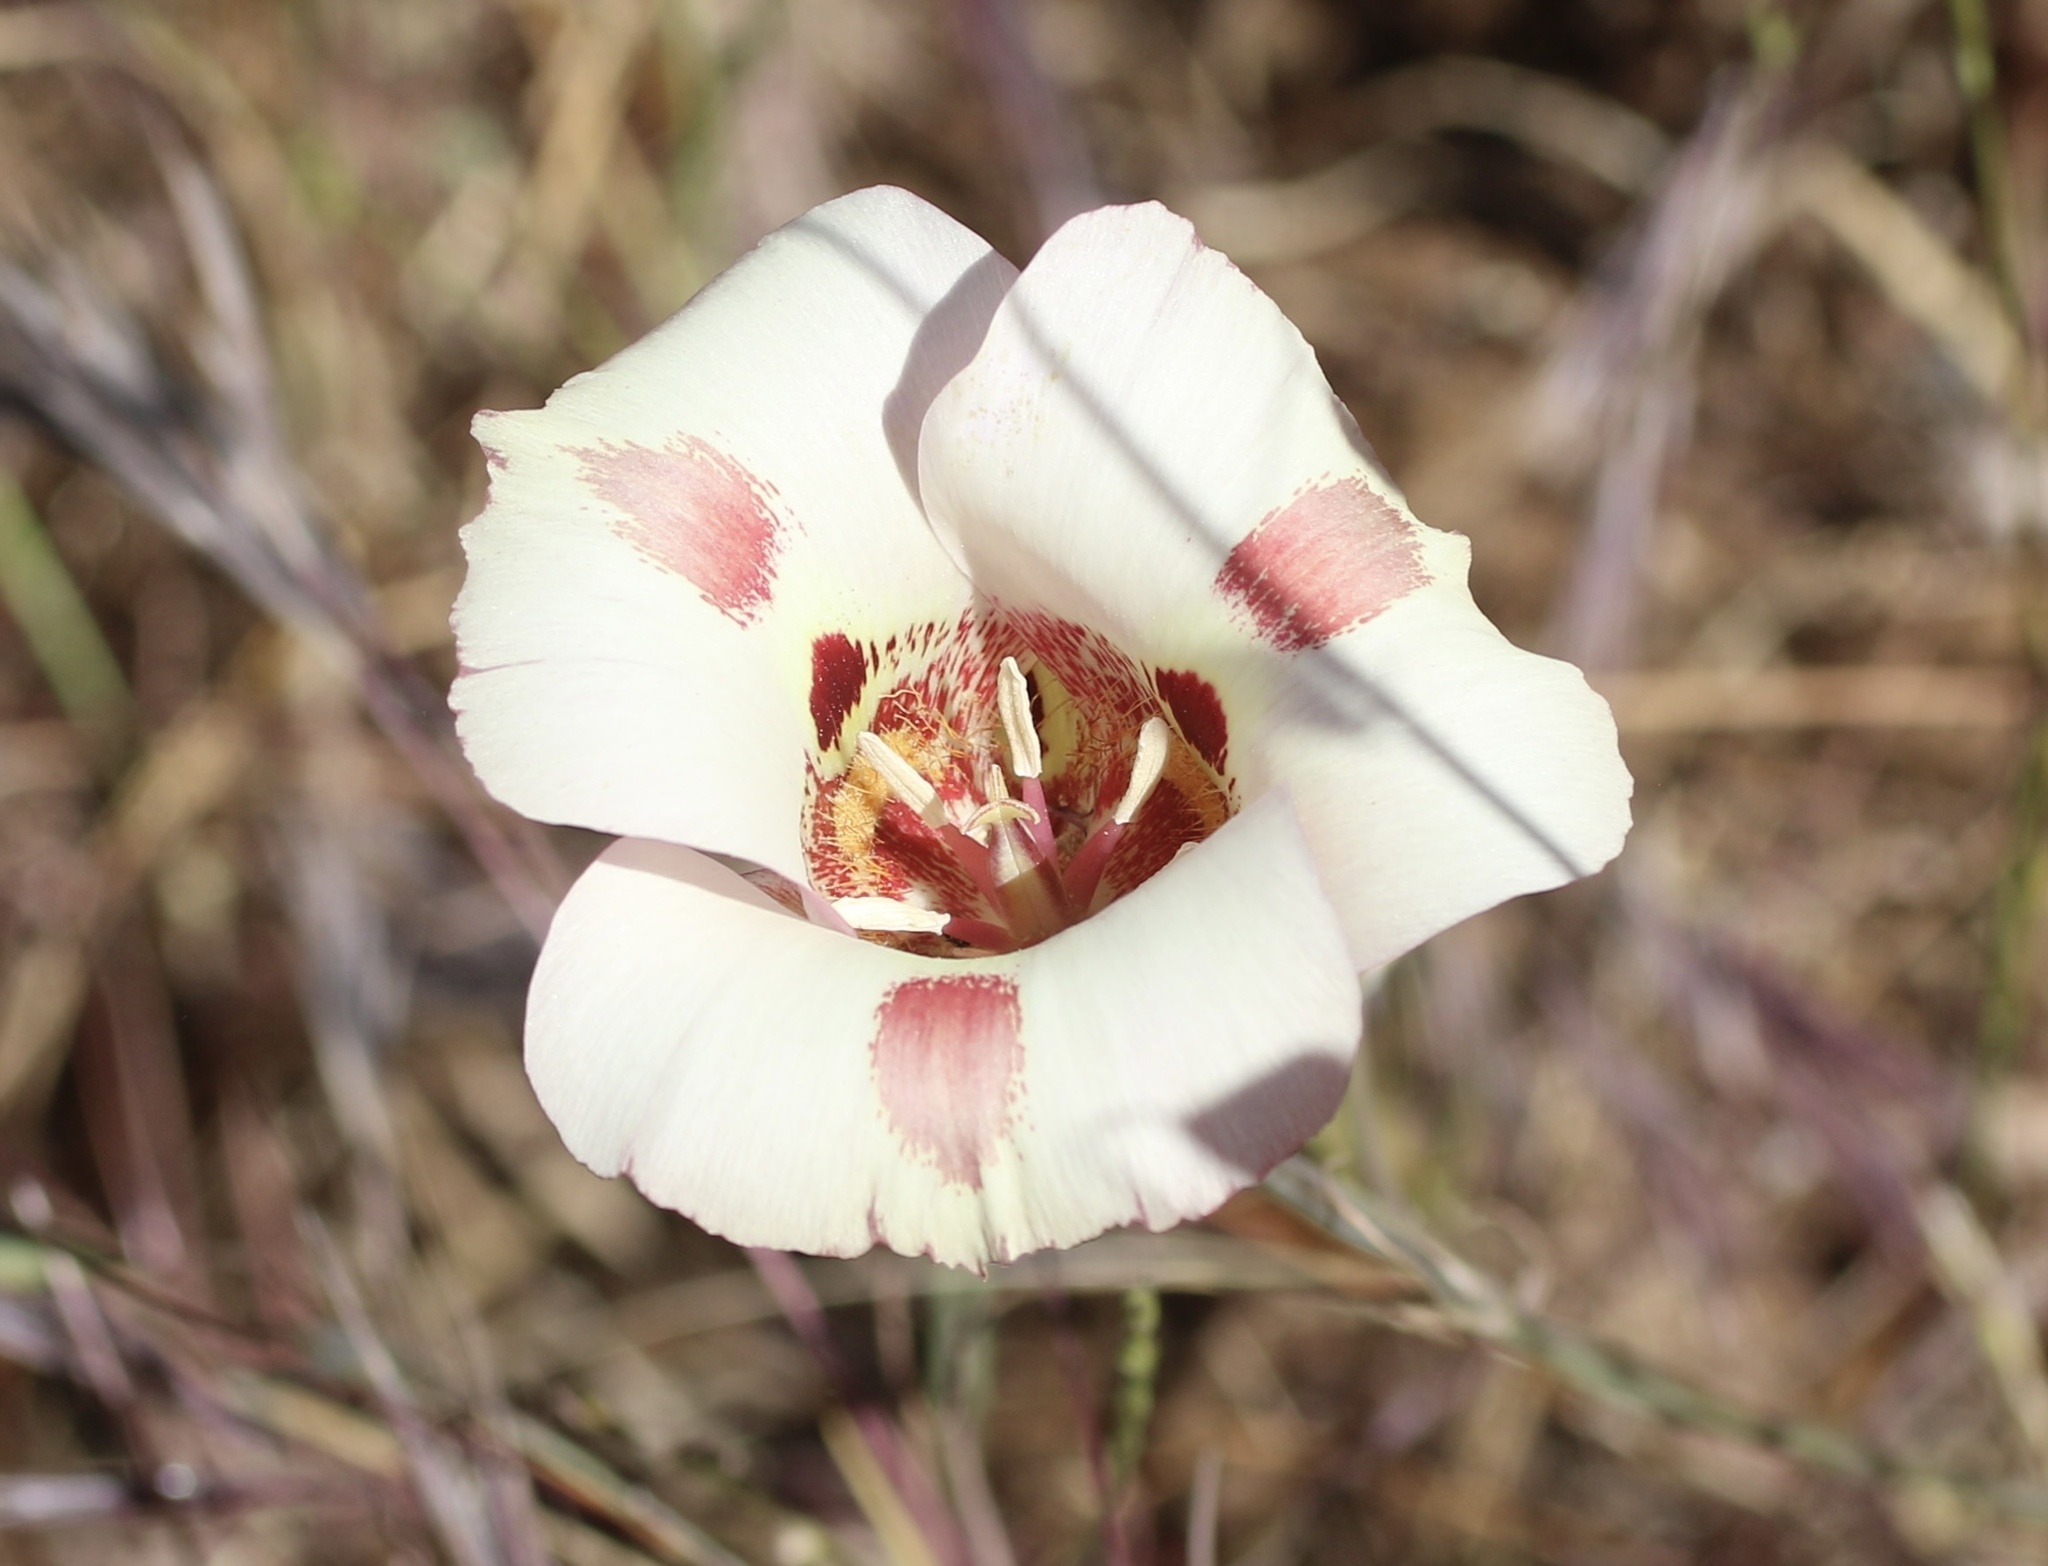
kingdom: Plantae
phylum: Tracheophyta
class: Liliopsida
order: Liliales
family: Liliaceae
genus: Calochortus
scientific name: Calochortus venustus
